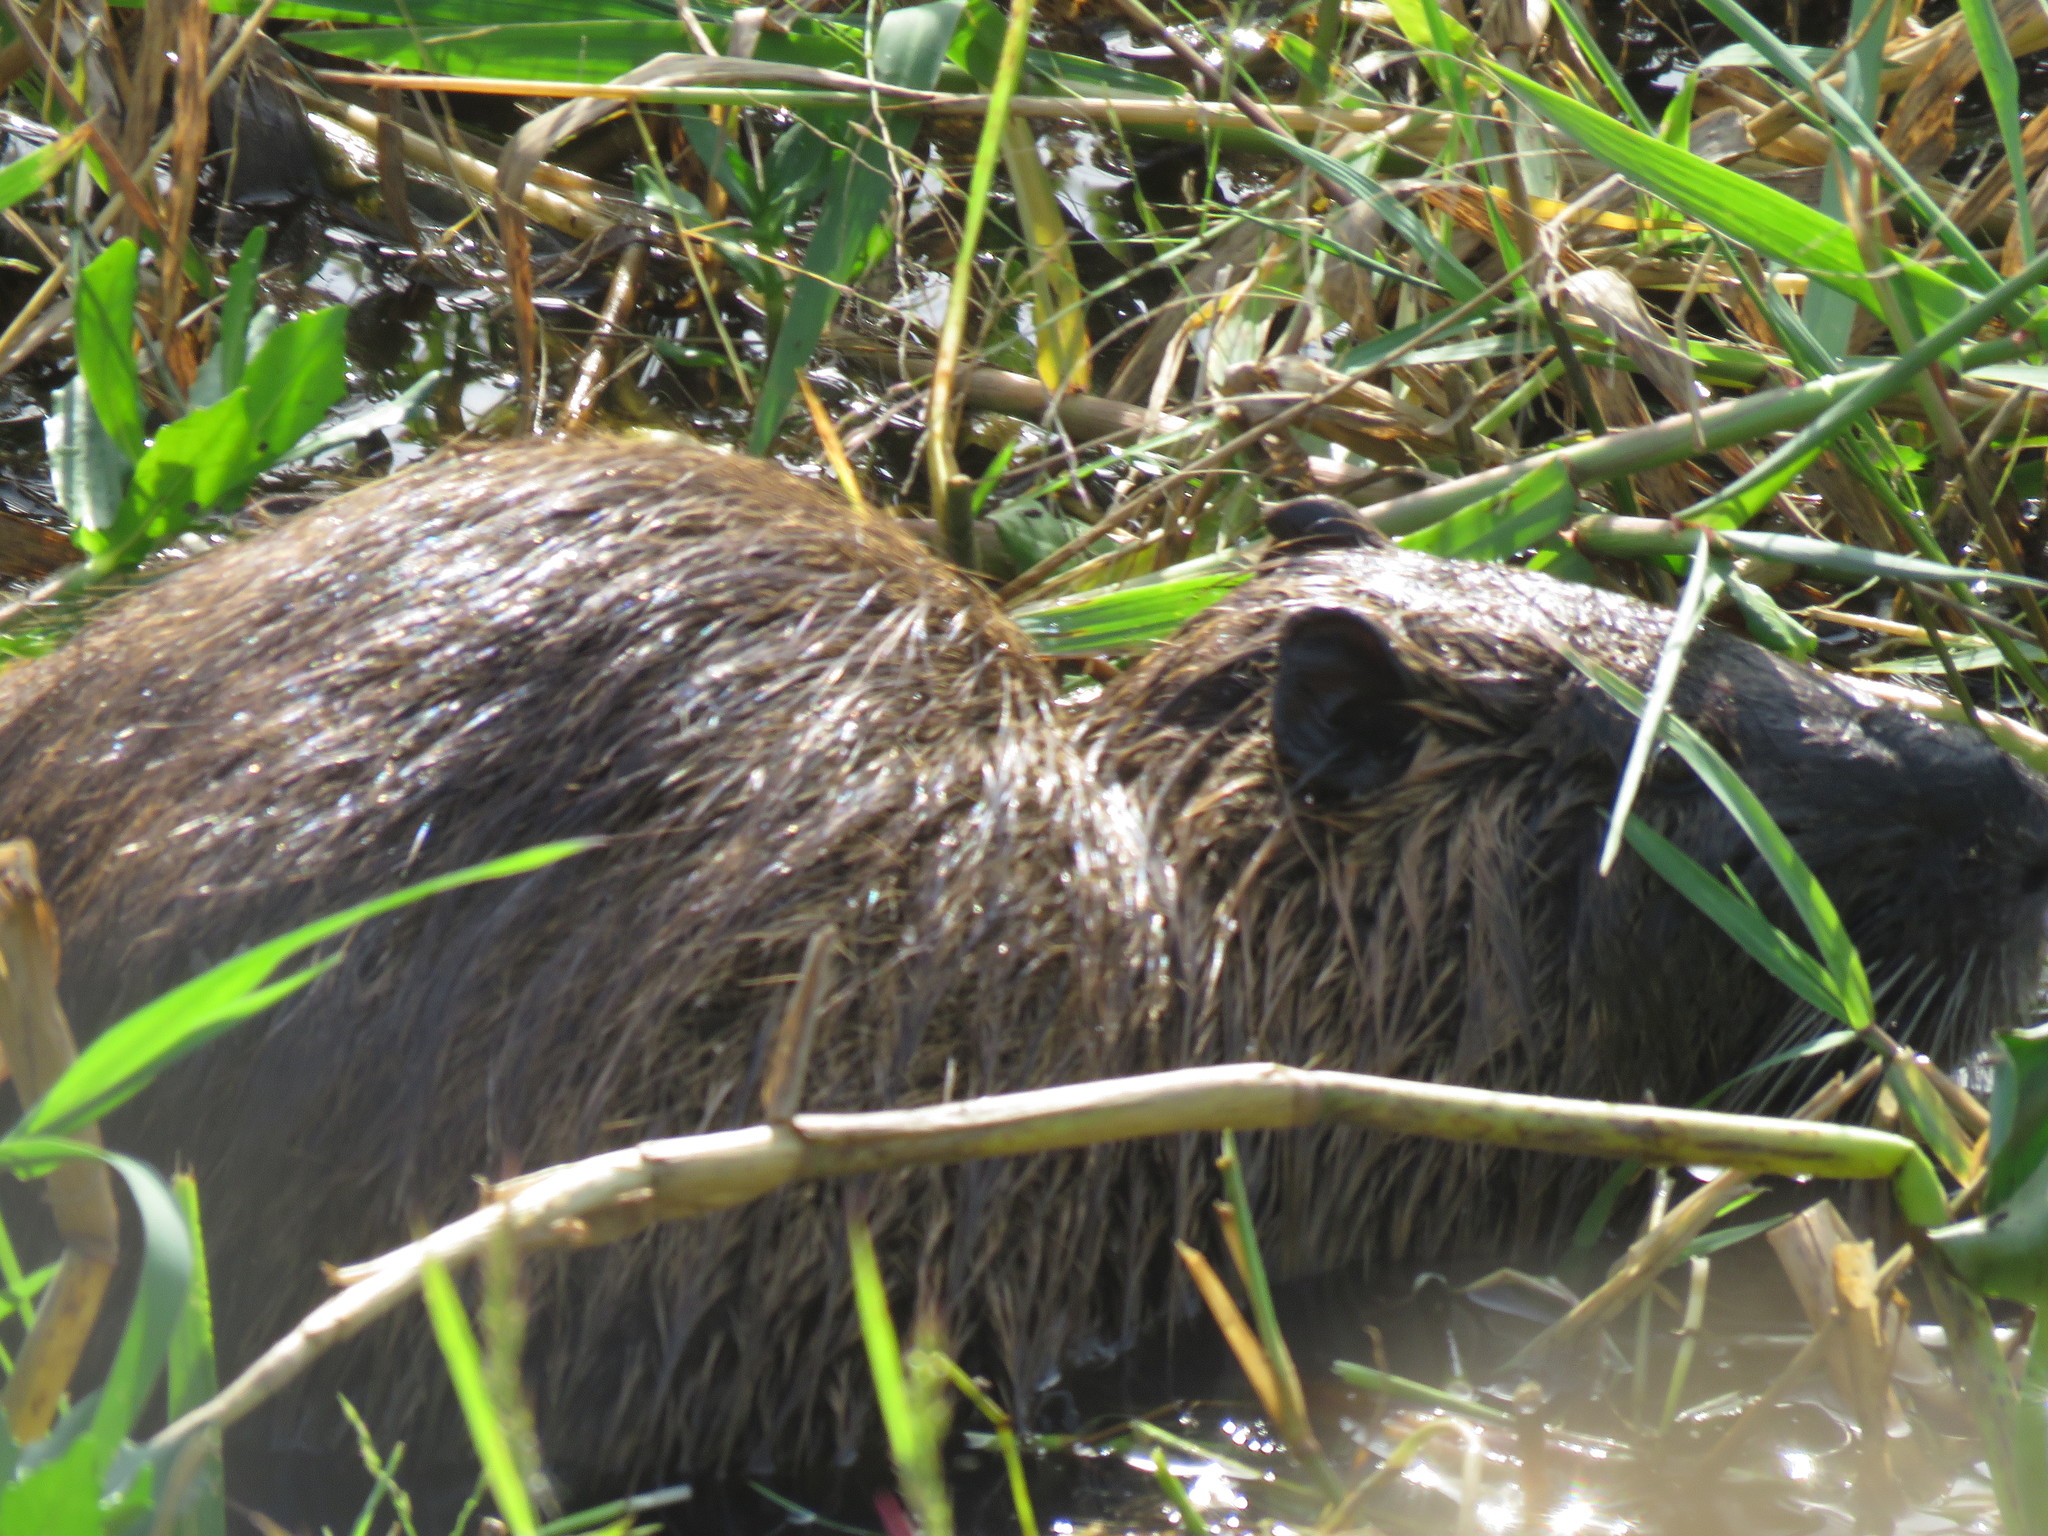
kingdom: Animalia
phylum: Chordata
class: Mammalia
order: Rodentia
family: Myocastoridae
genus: Myocastor
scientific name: Myocastor coypus
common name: Coypu
